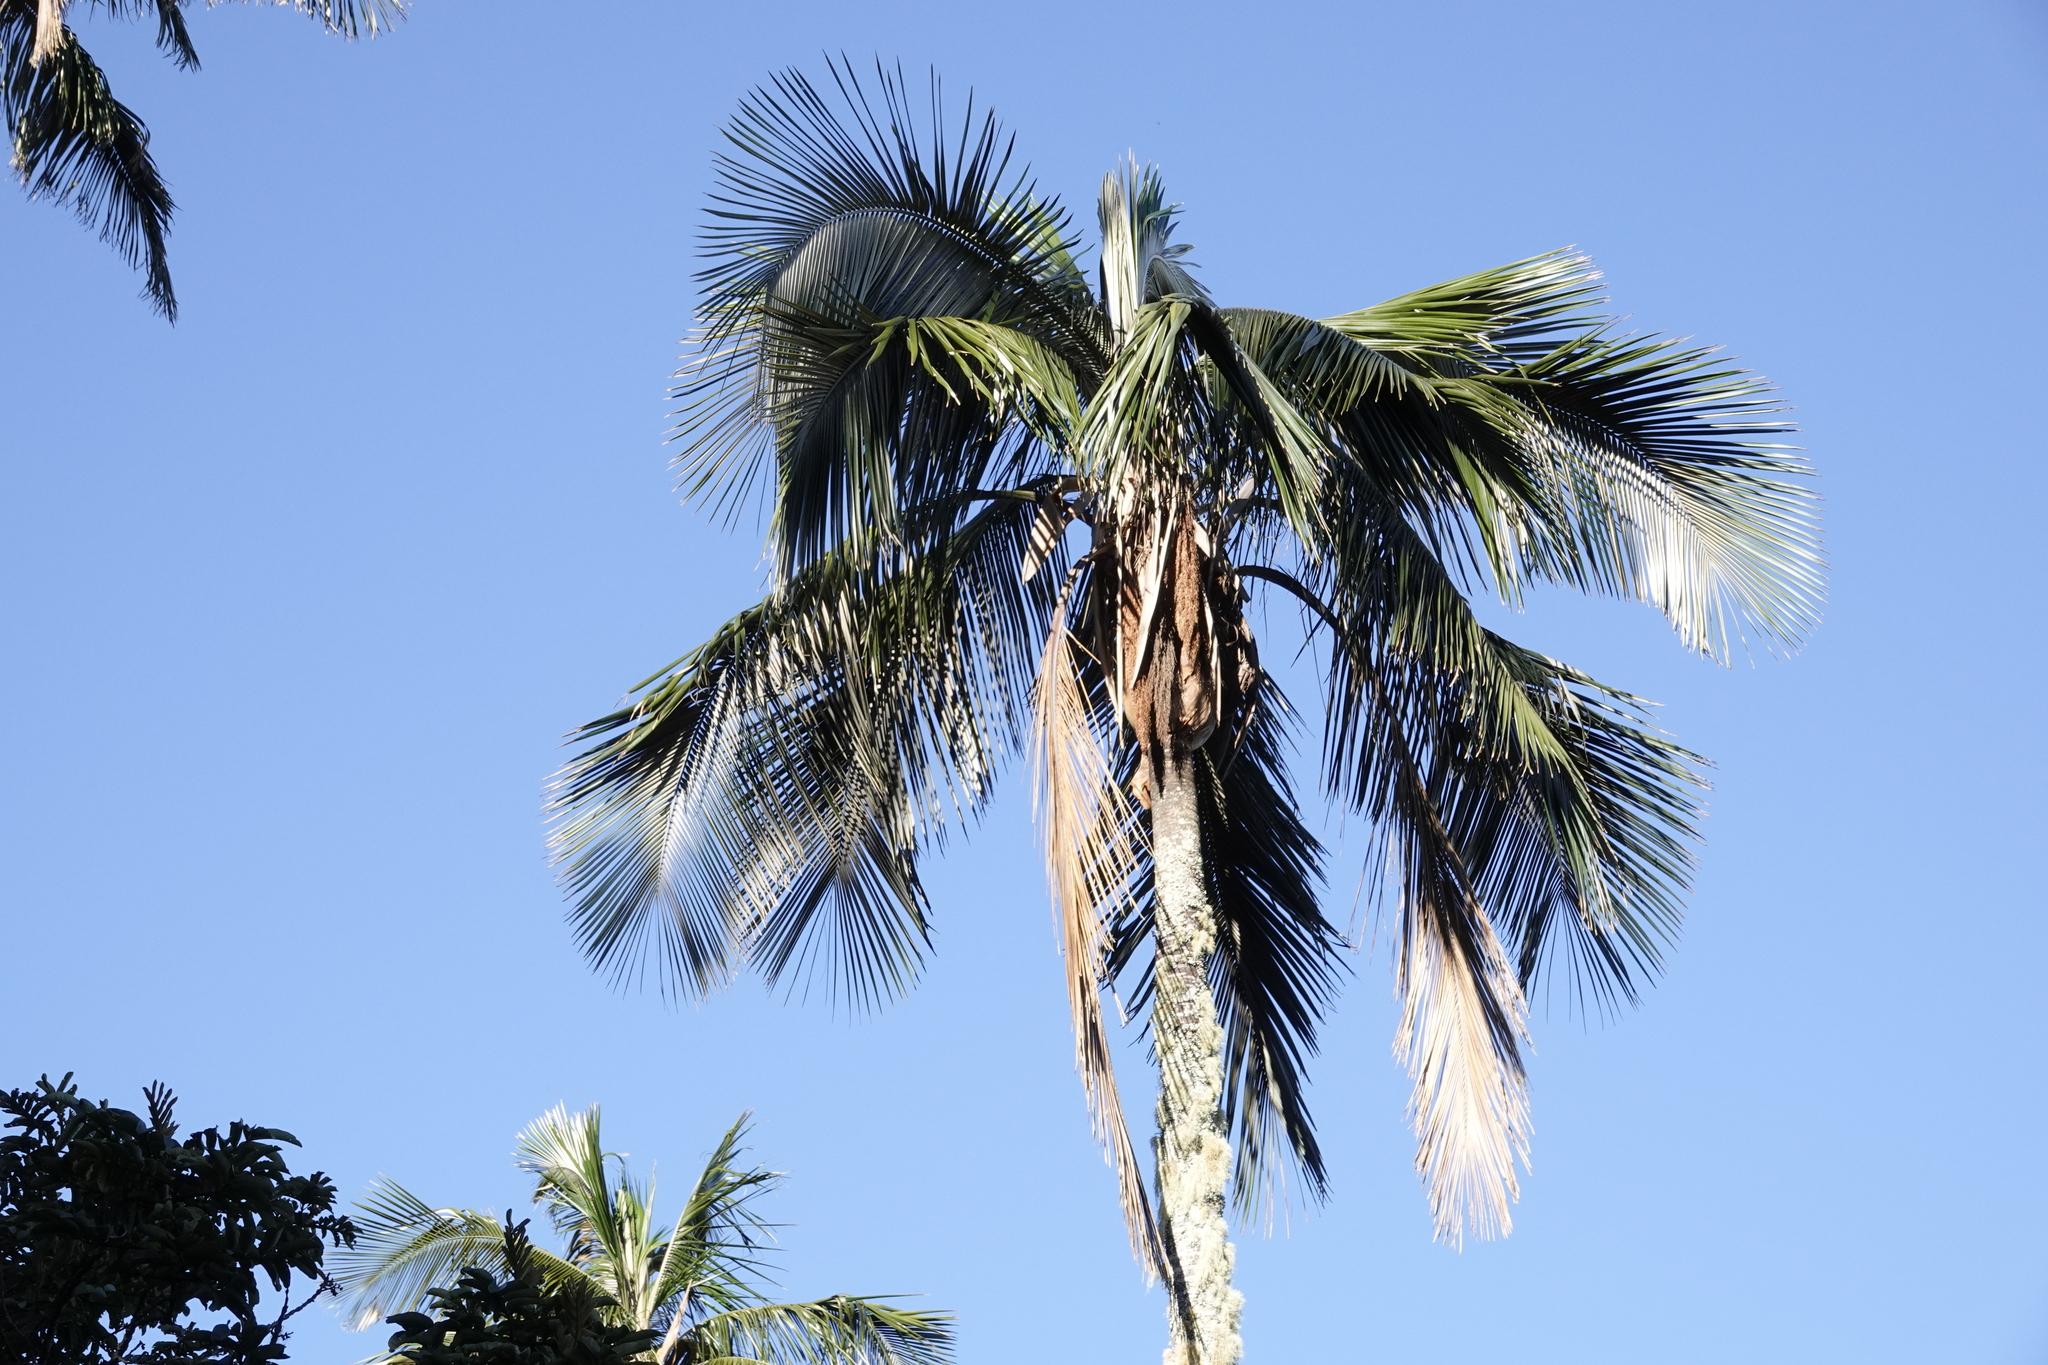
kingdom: Plantae
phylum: Tracheophyta
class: Liliopsida
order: Arecales
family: Arecaceae
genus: Ceroxylon
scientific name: Ceroxylon ceriferum
